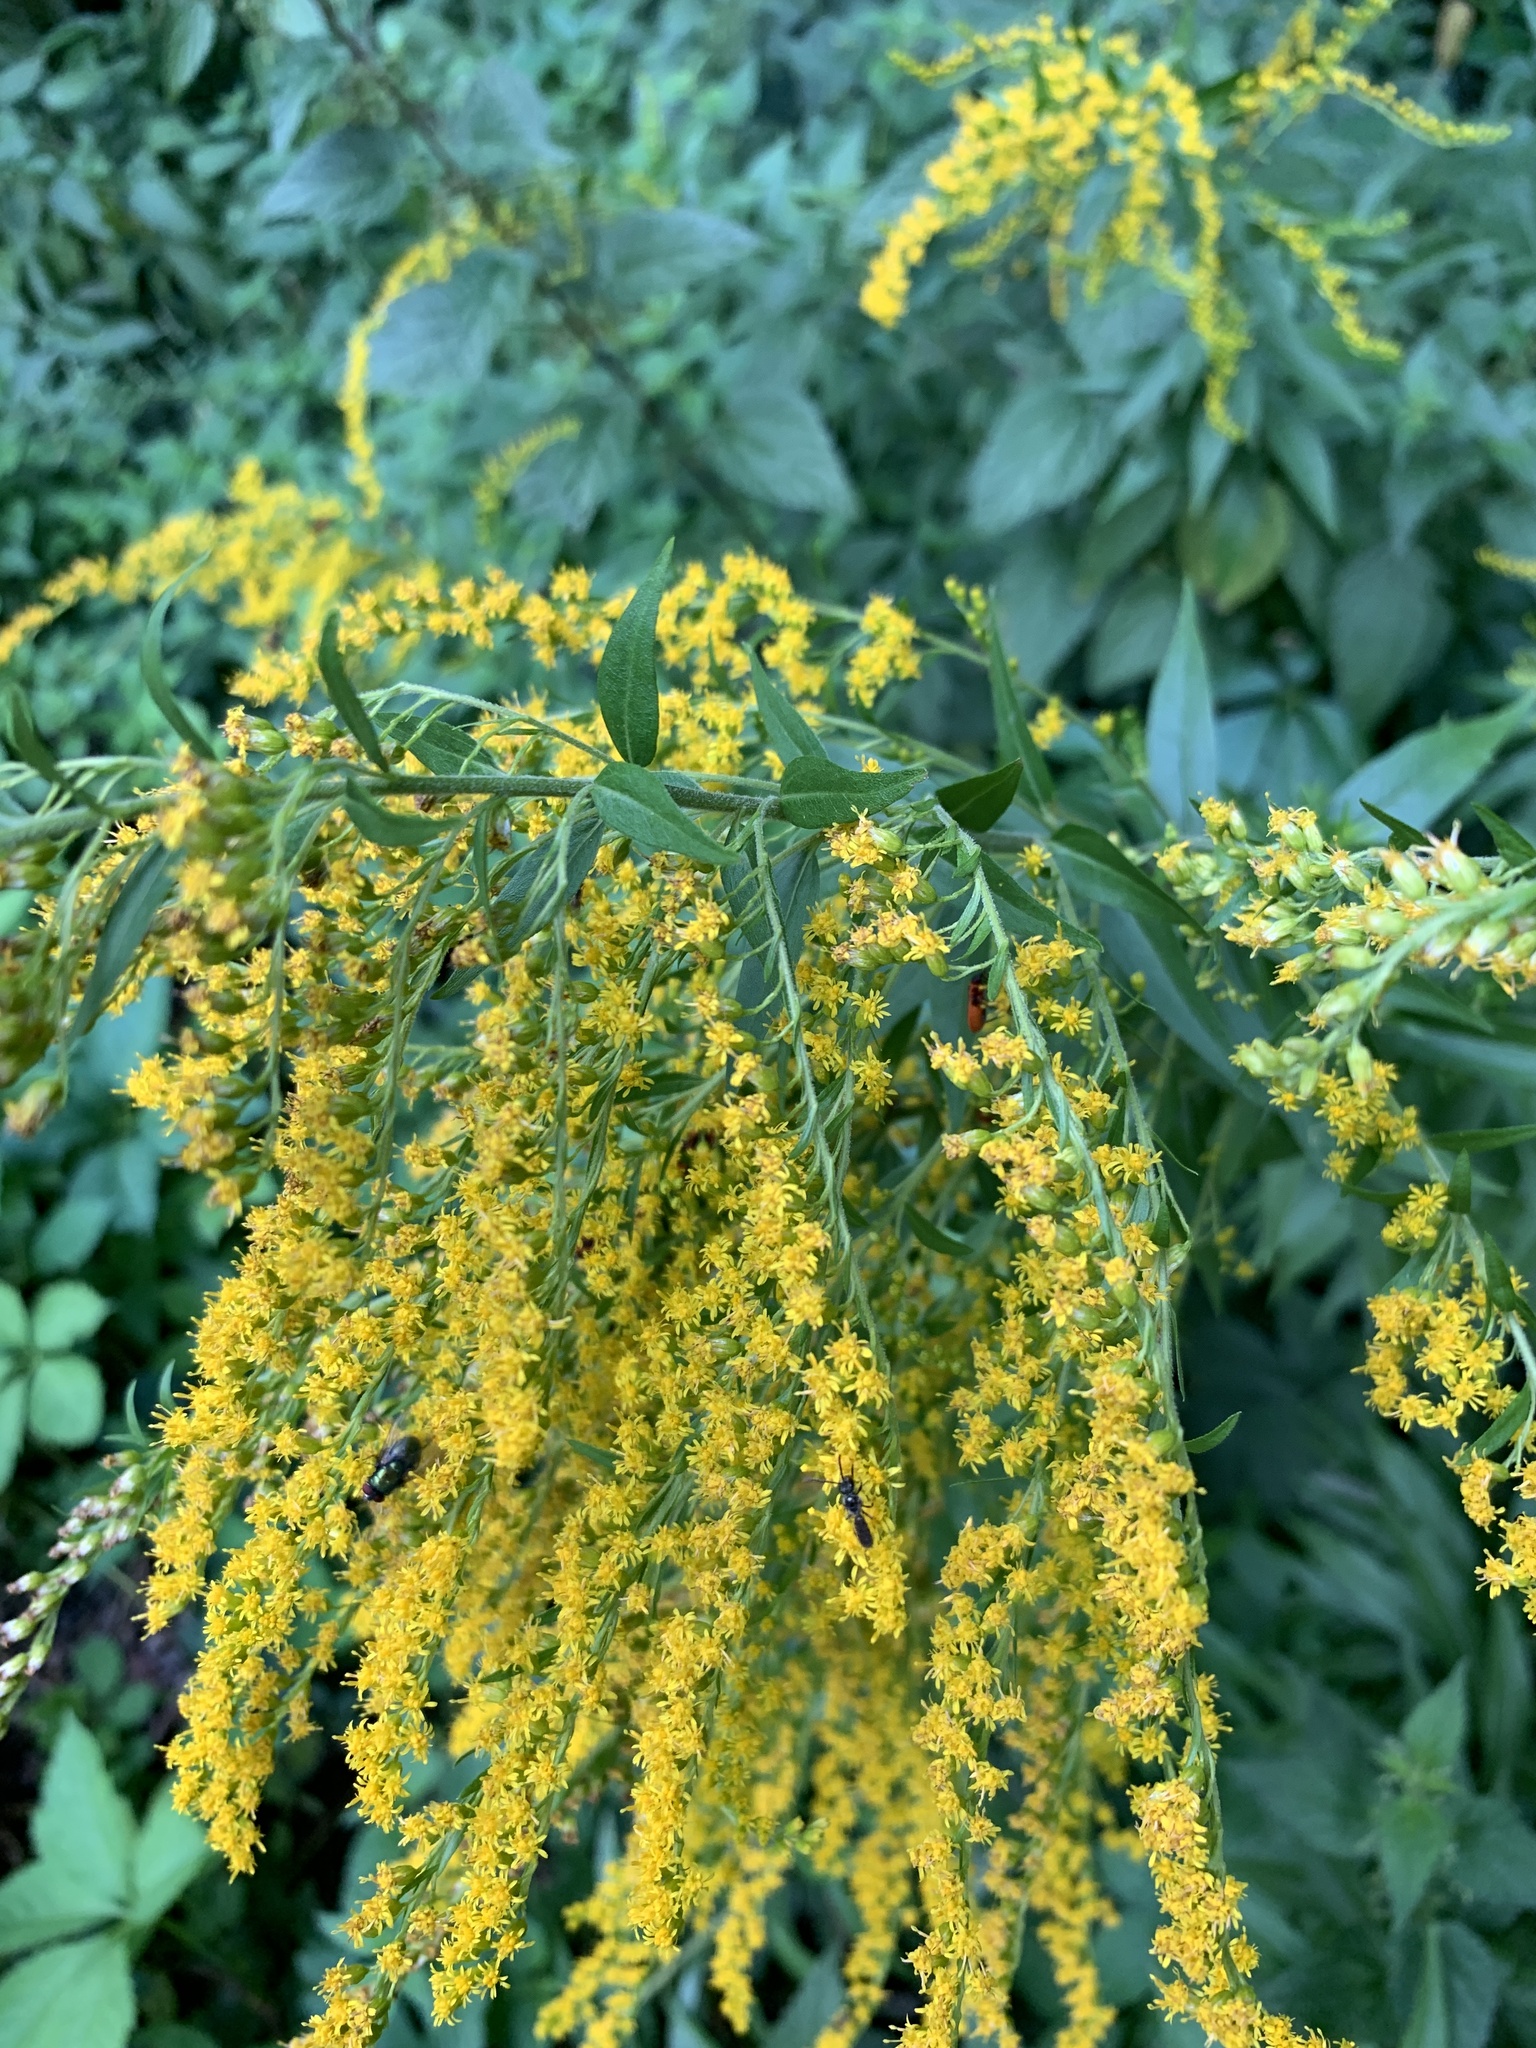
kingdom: Plantae
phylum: Tracheophyta
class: Magnoliopsida
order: Asterales
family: Asteraceae
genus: Solidago
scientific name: Solidago canadensis
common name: Canada goldenrod
